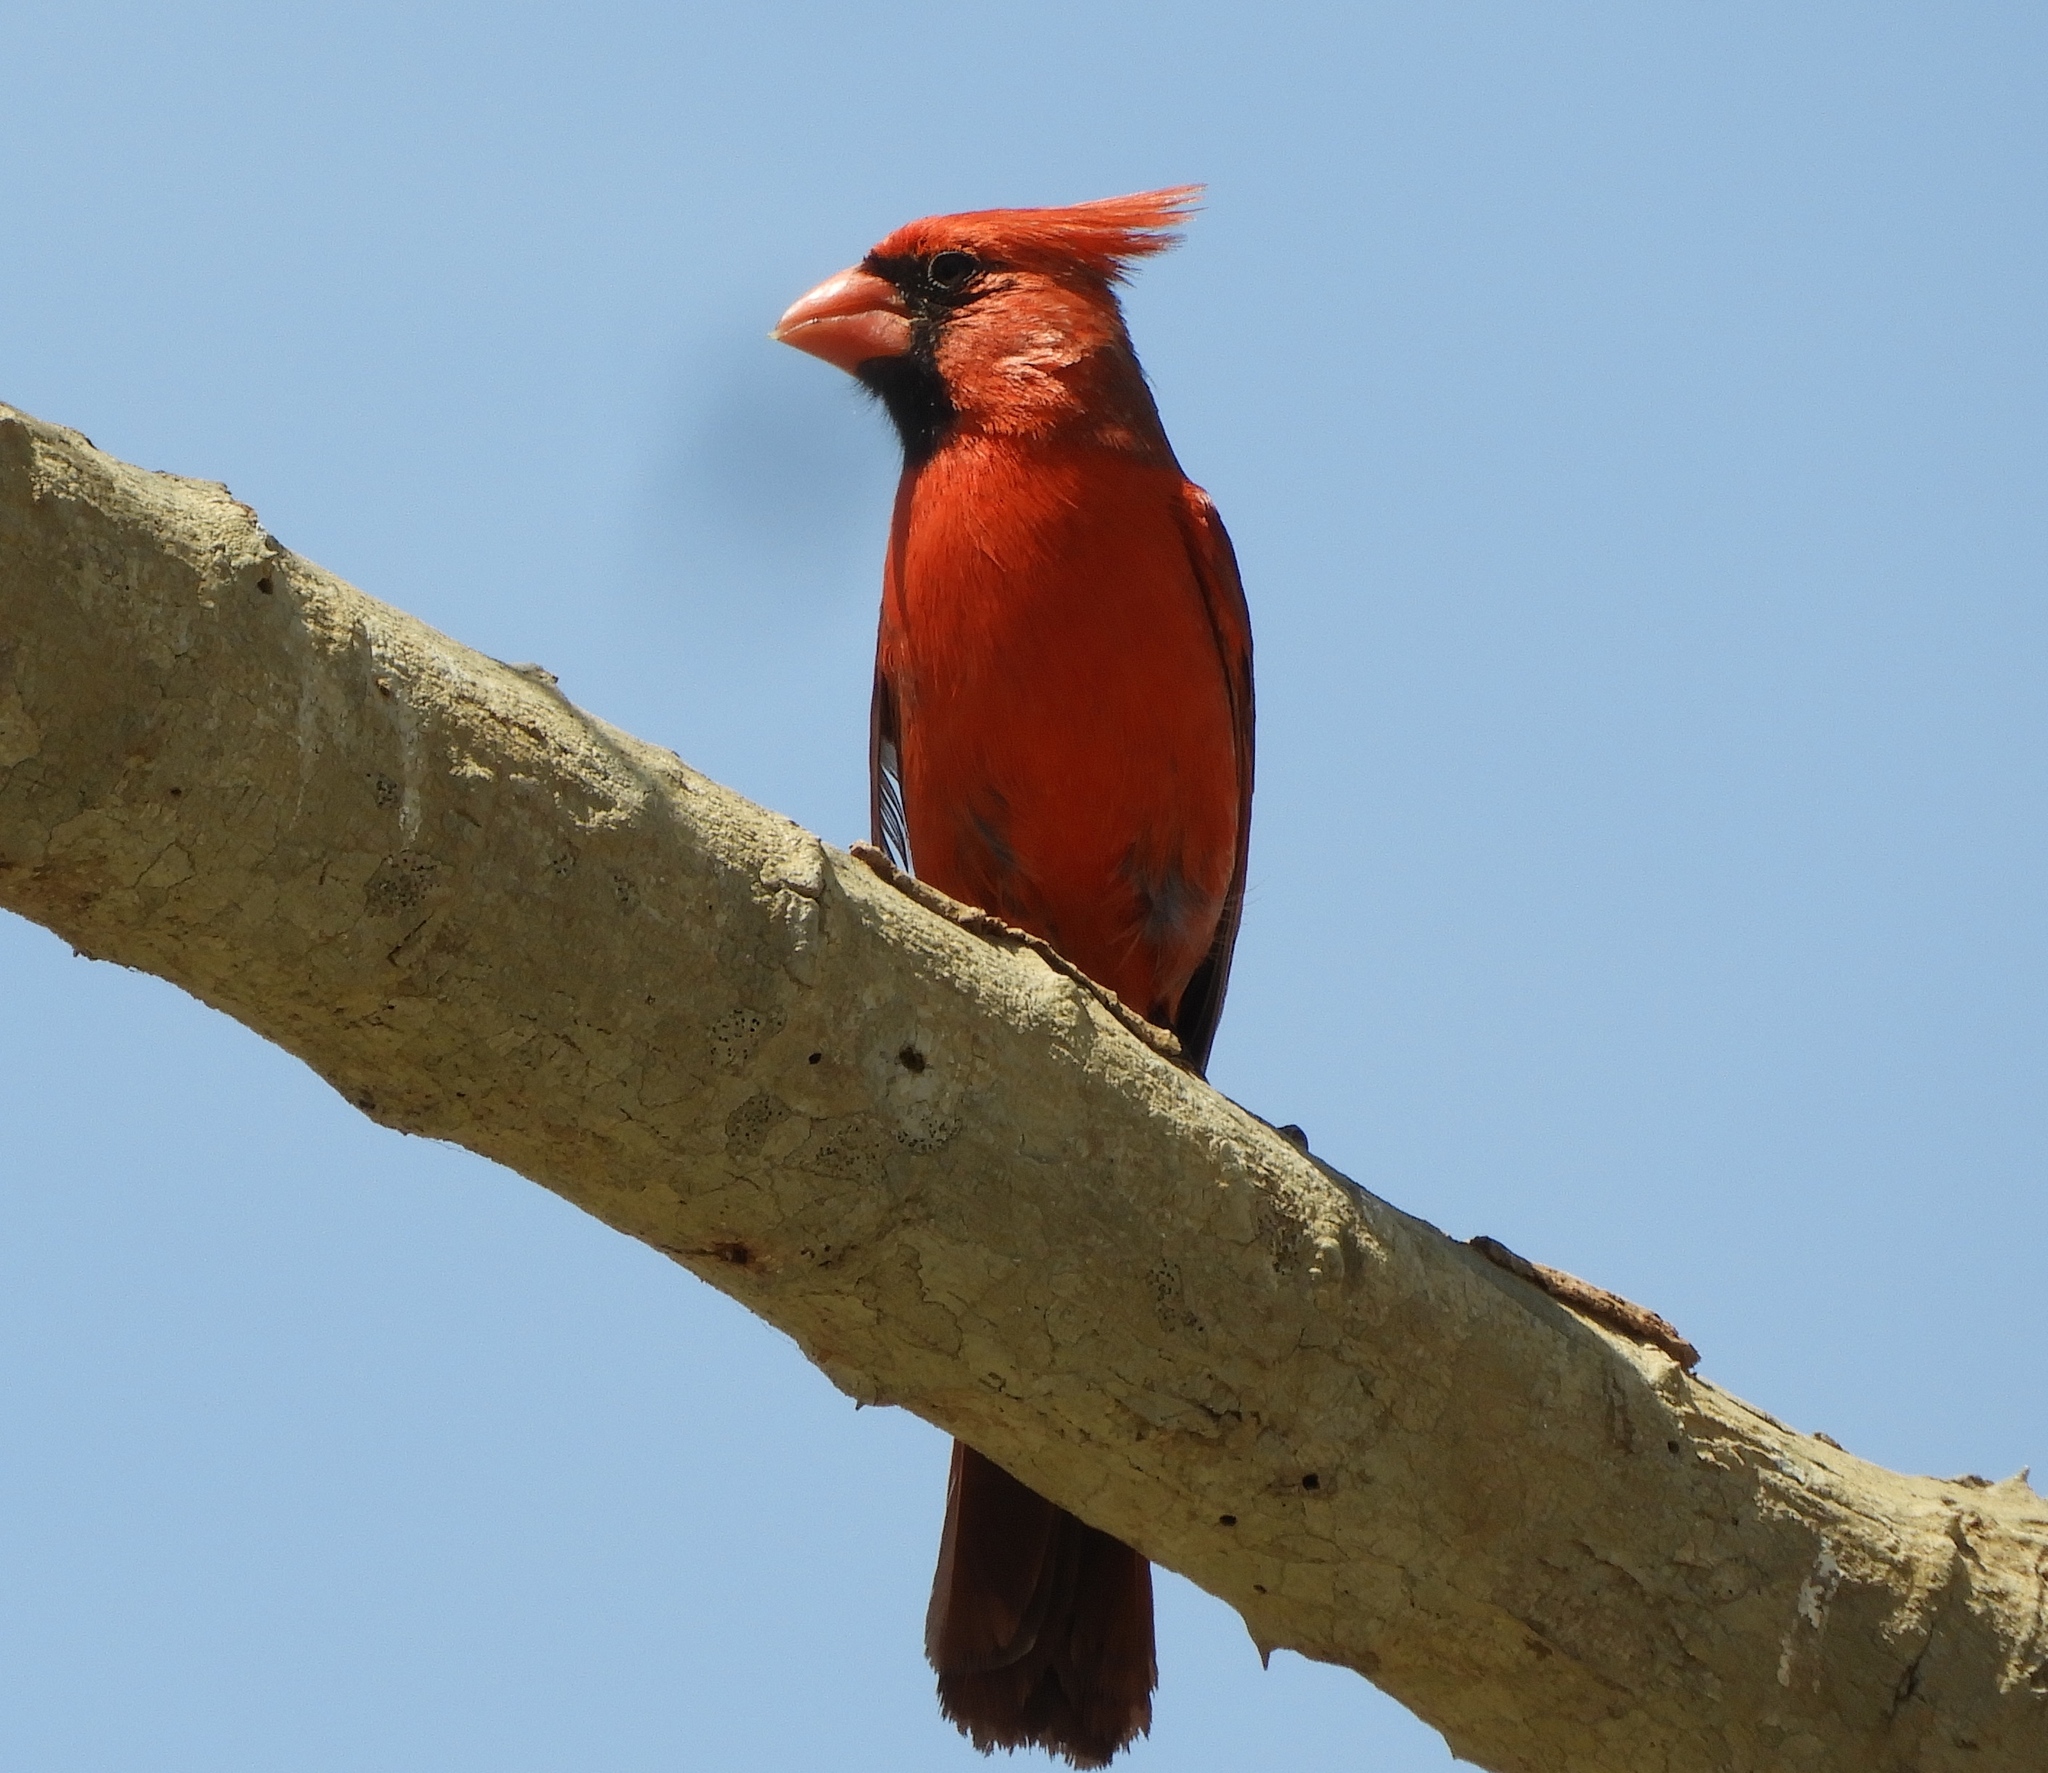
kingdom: Animalia
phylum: Chordata
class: Aves
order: Passeriformes
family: Cardinalidae
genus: Cardinalis
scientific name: Cardinalis cardinalis
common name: Northern cardinal
